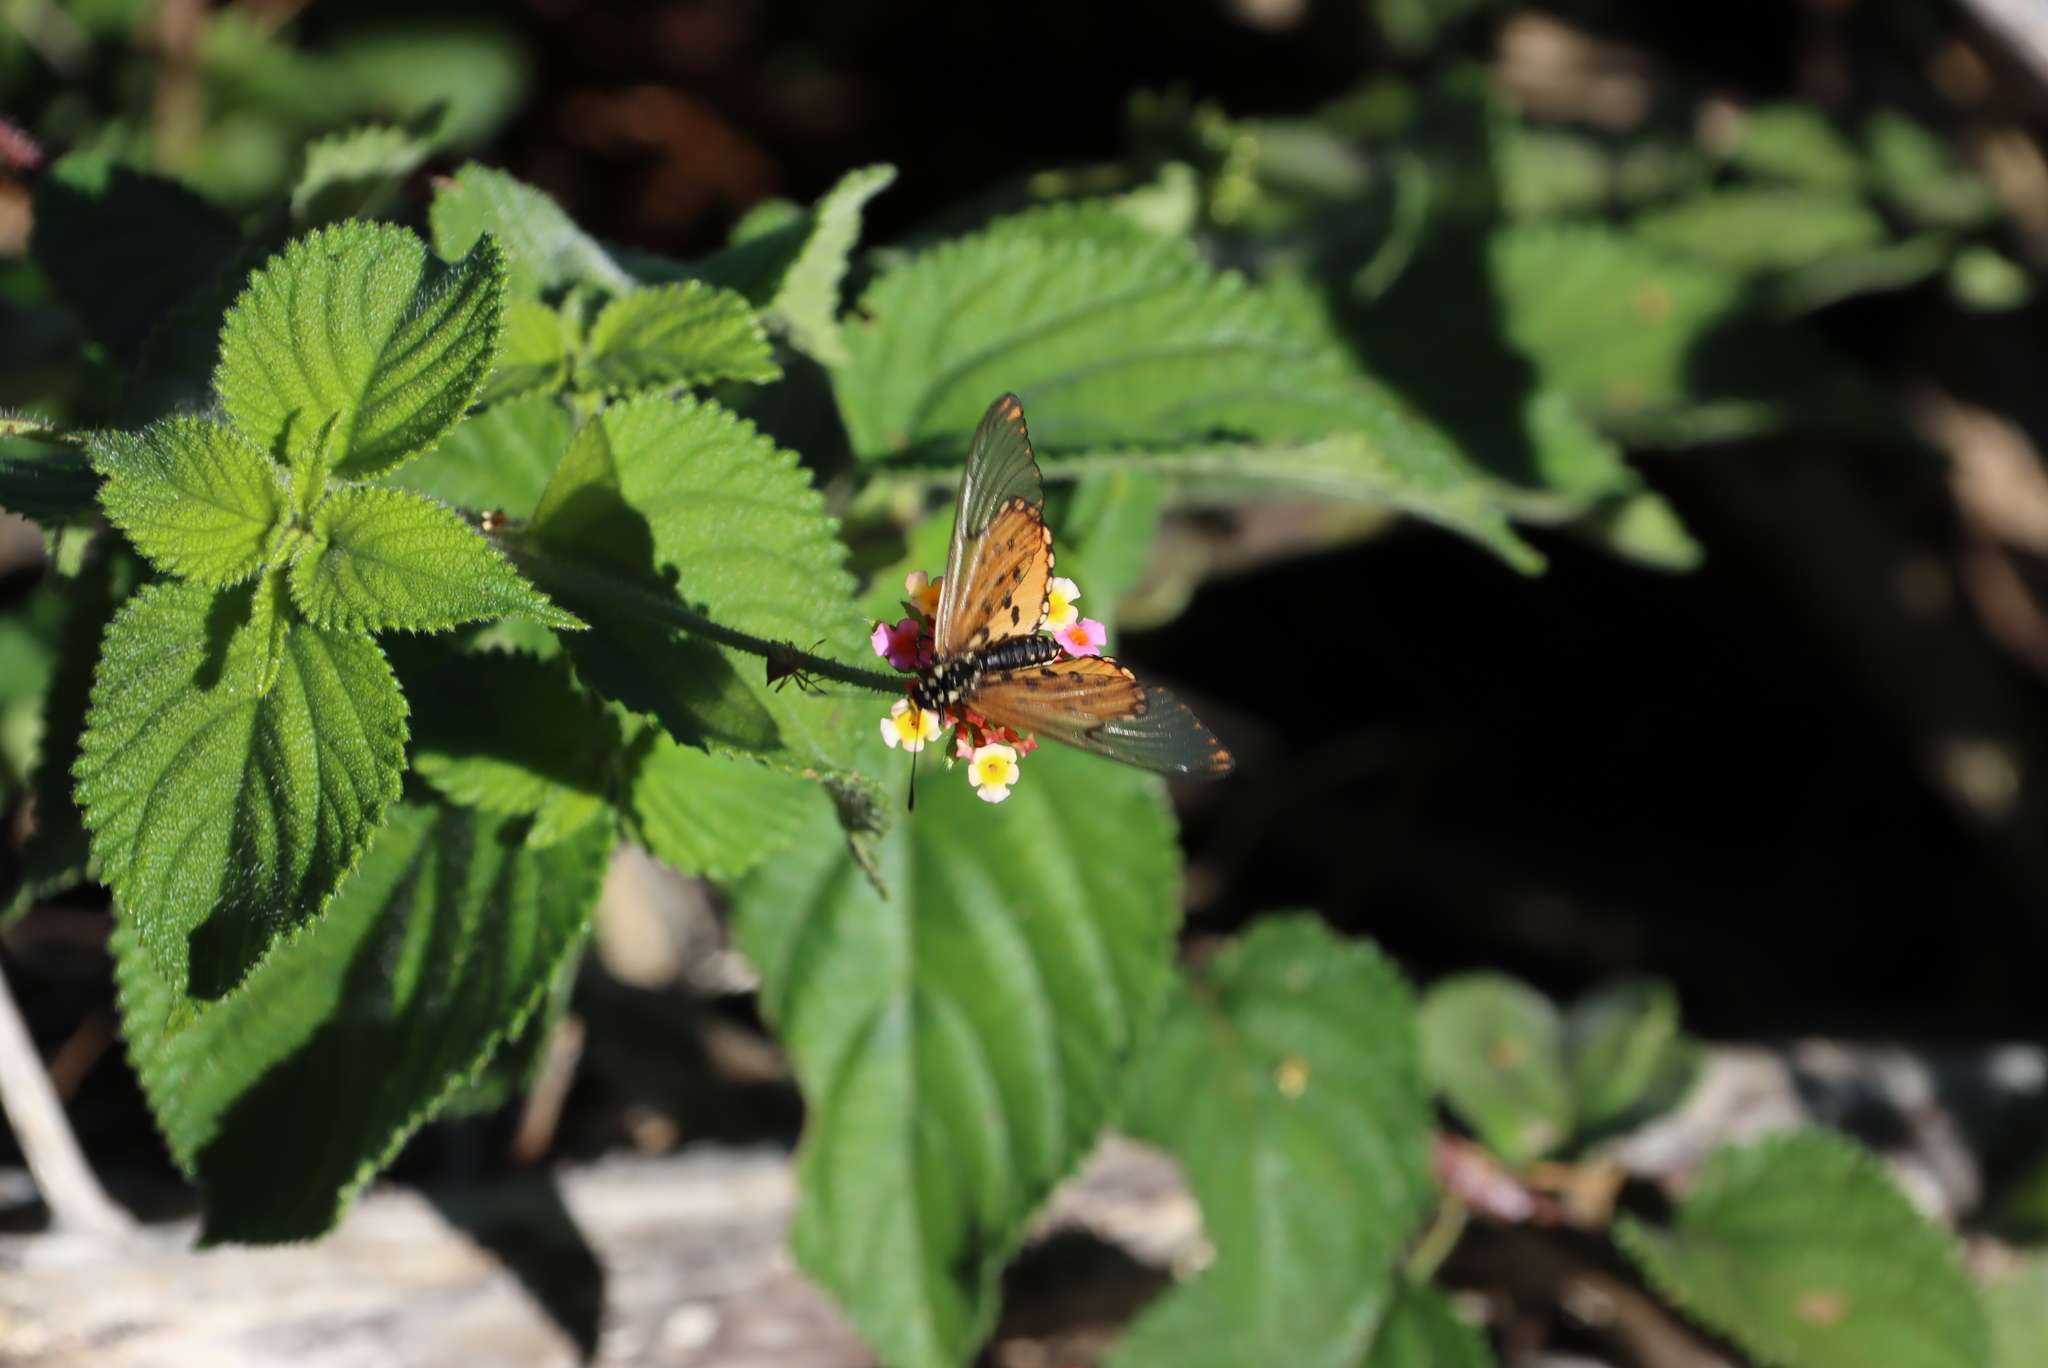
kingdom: Animalia
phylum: Arthropoda
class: Insecta
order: Lepidoptera
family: Nymphalidae
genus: Acraea
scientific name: Acraea horta
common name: Garden acraea
